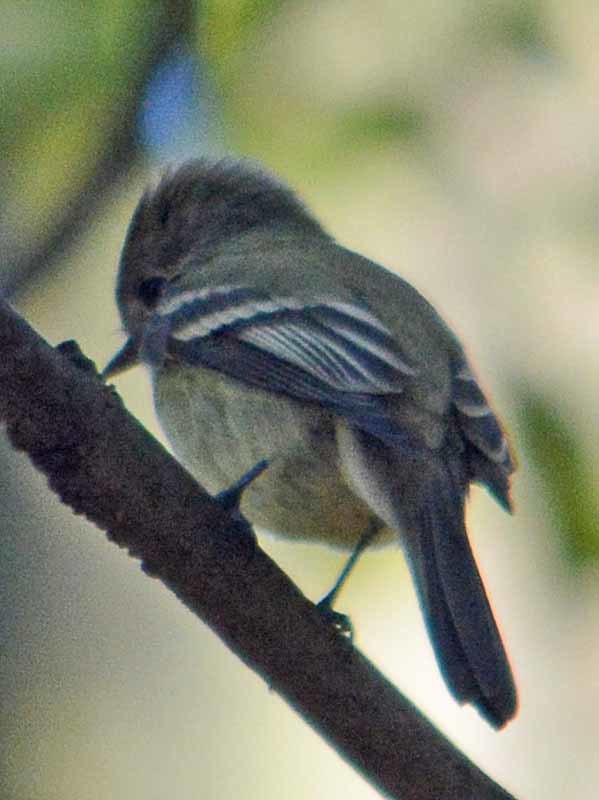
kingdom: Animalia
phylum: Chordata
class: Aves
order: Passeriformes
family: Tyrannidae
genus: Empidonax
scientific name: Empidonax hammondii
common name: Hammond's flycatcher
